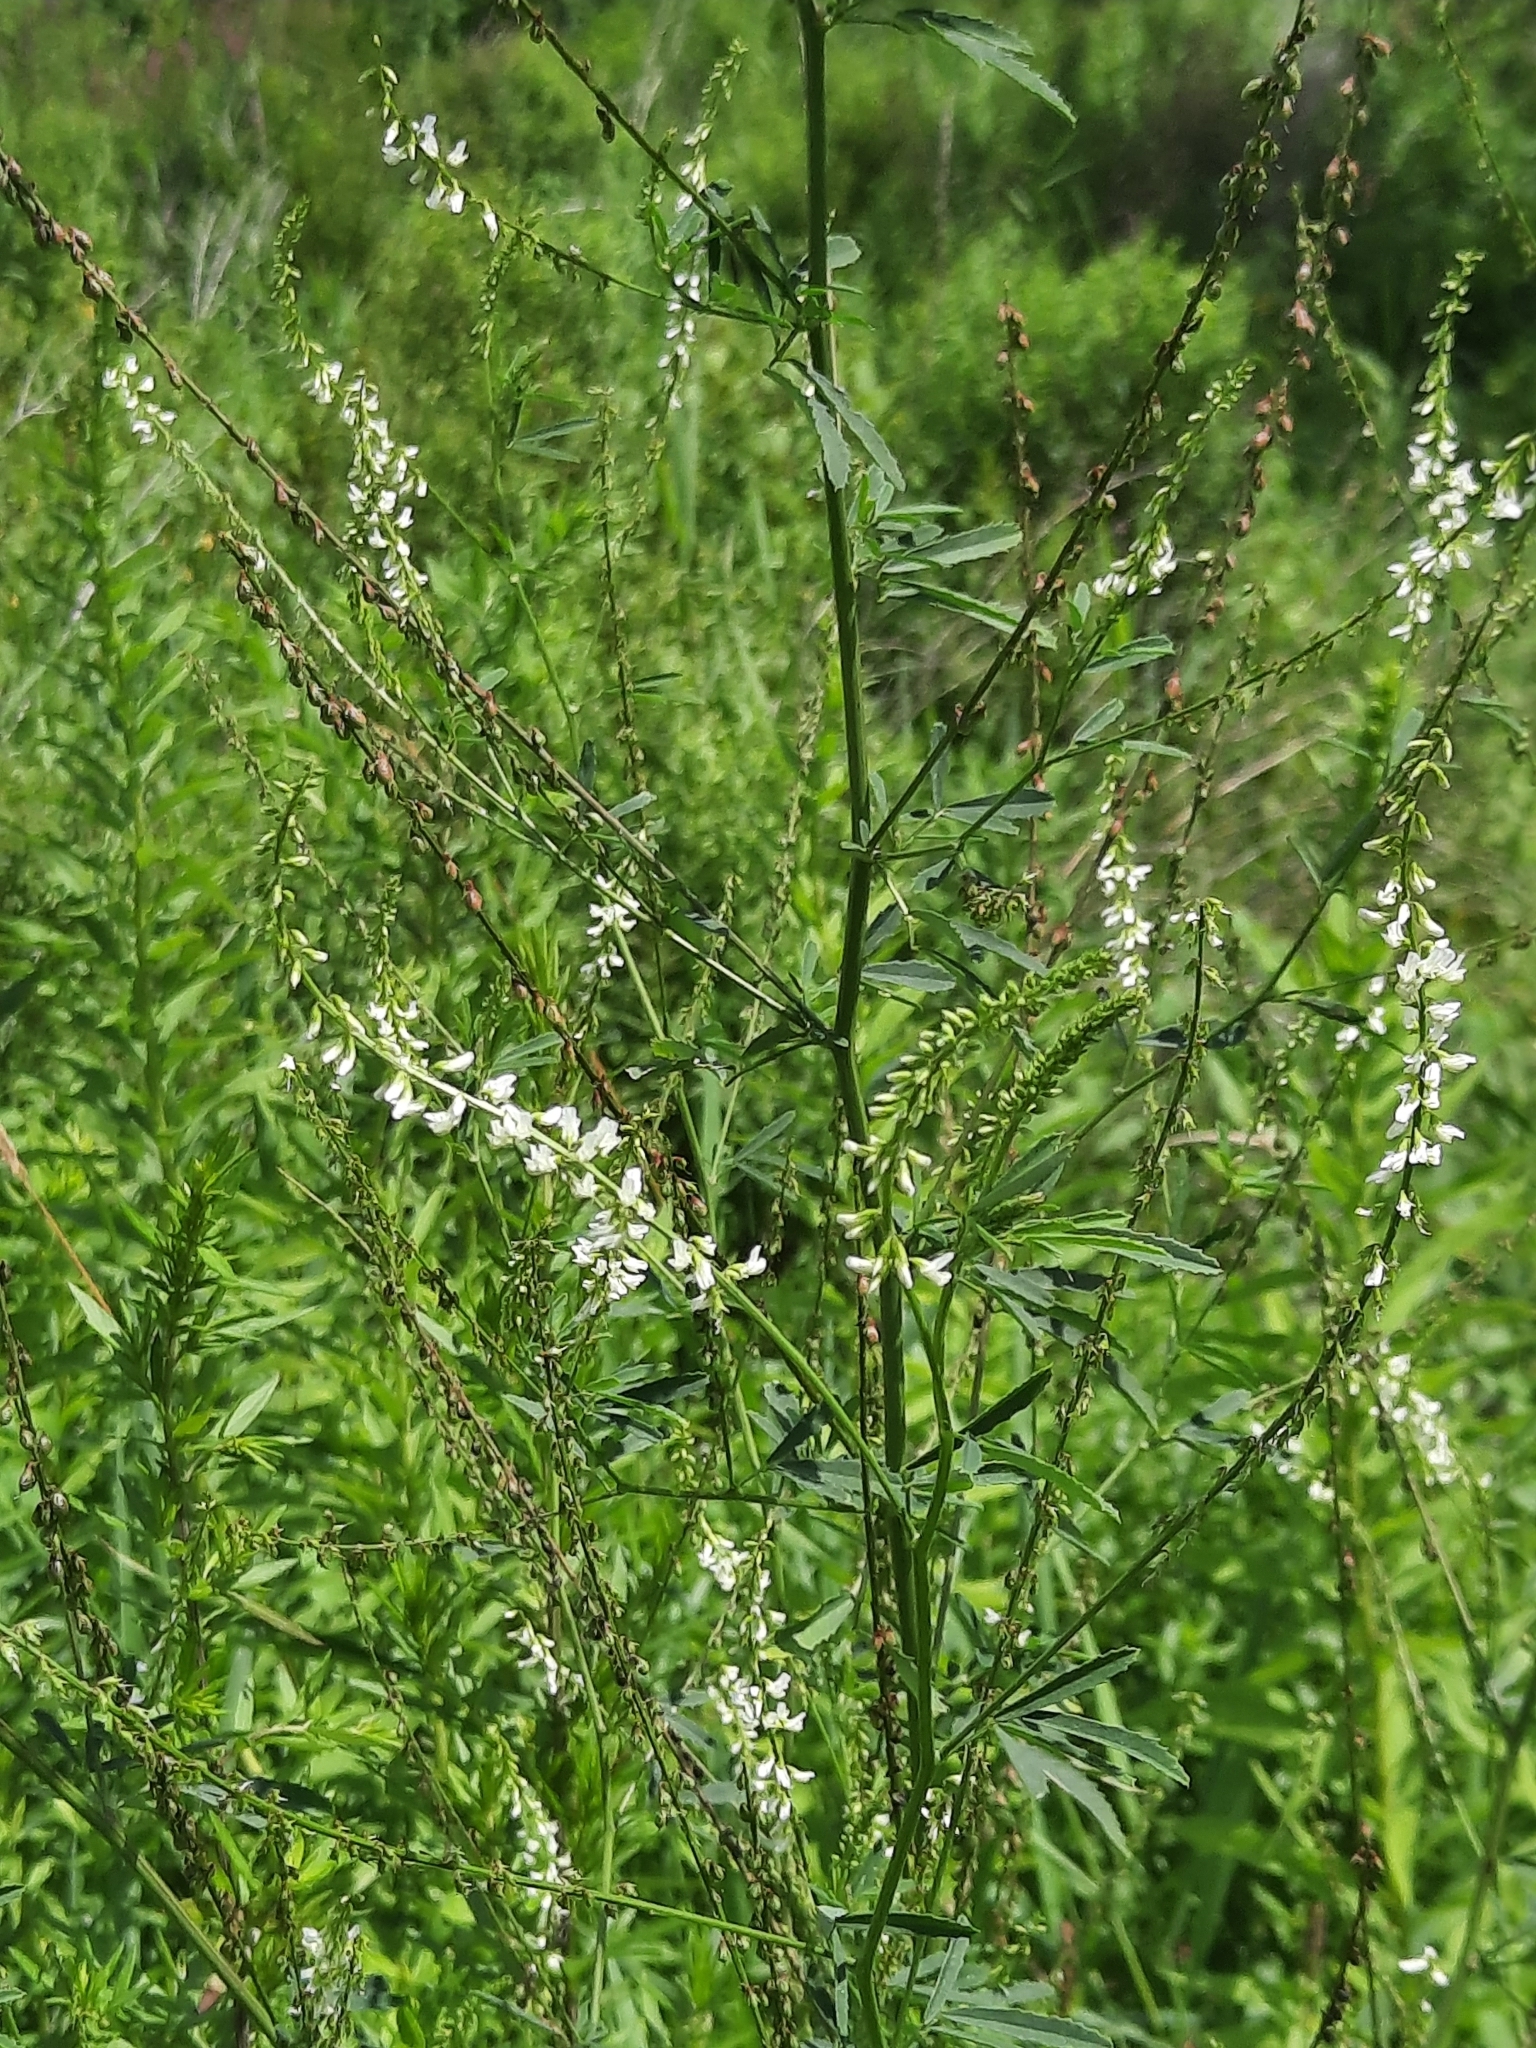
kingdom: Plantae
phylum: Tracheophyta
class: Magnoliopsida
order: Fabales
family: Fabaceae
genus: Melilotus
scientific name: Melilotus albus
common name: White melilot
